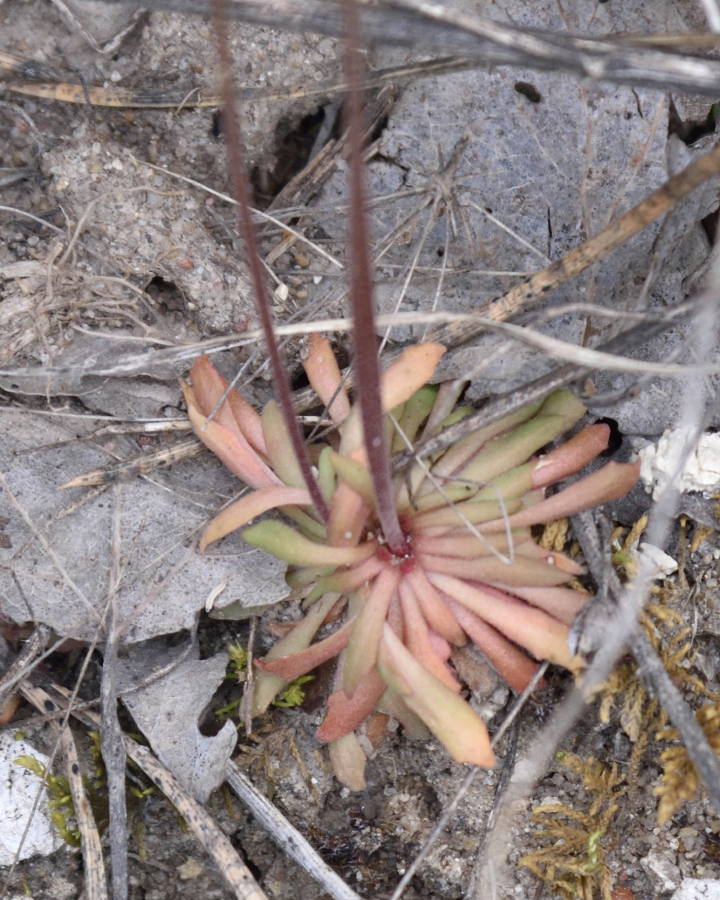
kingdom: Plantae
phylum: Tracheophyta
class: Magnoliopsida
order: Ericales
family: Primulaceae
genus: Androsace
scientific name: Androsace septentrionalis
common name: Hairy northern fairy-candelabra
